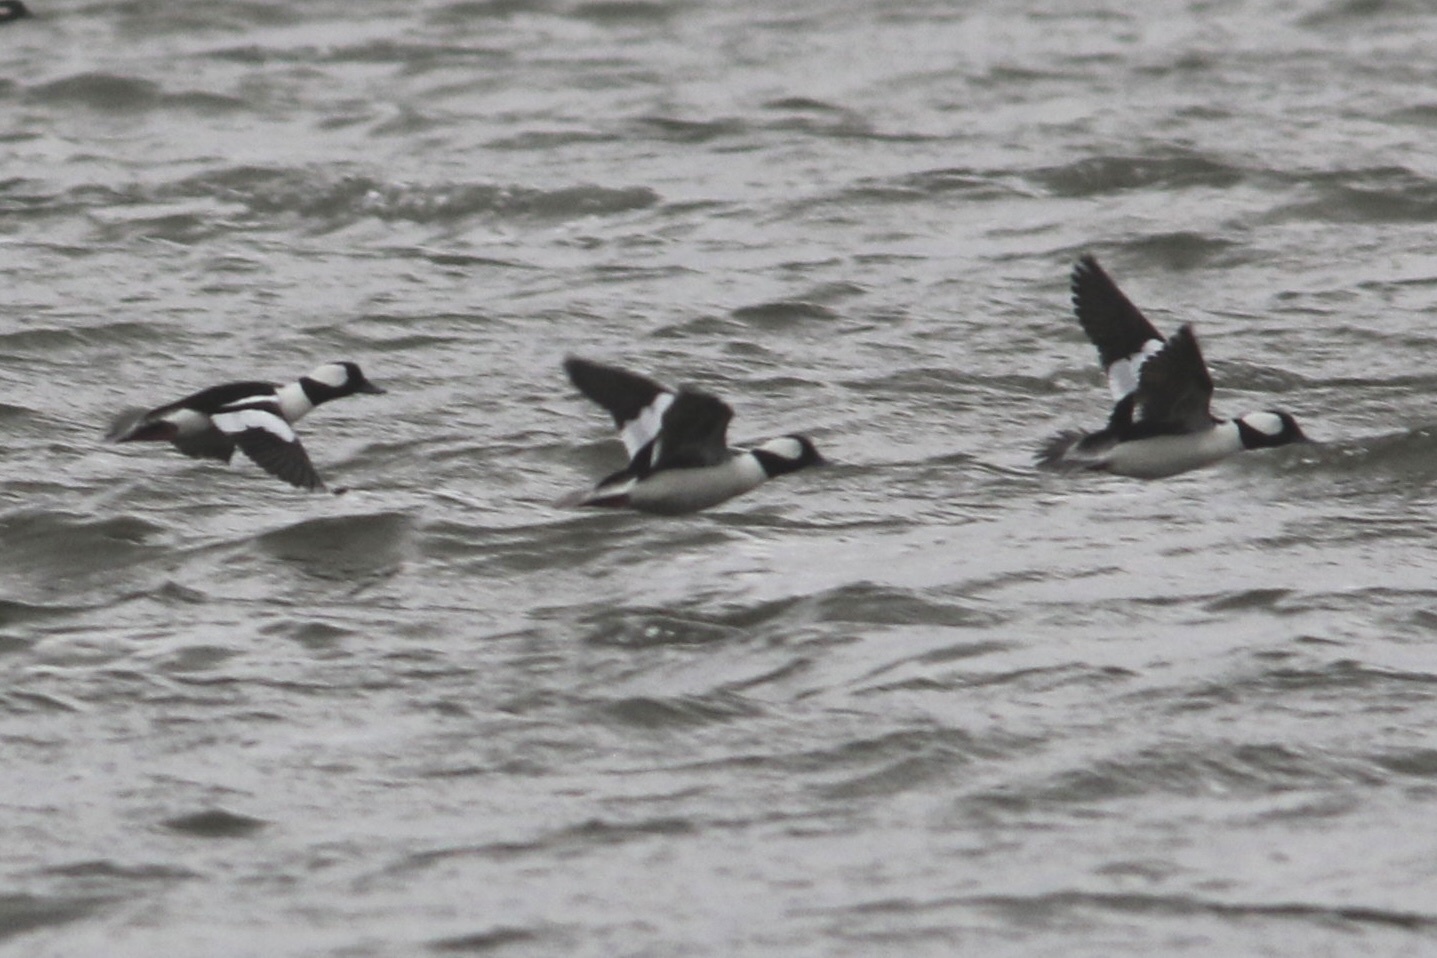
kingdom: Animalia
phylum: Chordata
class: Aves
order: Anseriformes
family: Anatidae
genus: Bucephala
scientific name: Bucephala albeola
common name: Bufflehead
